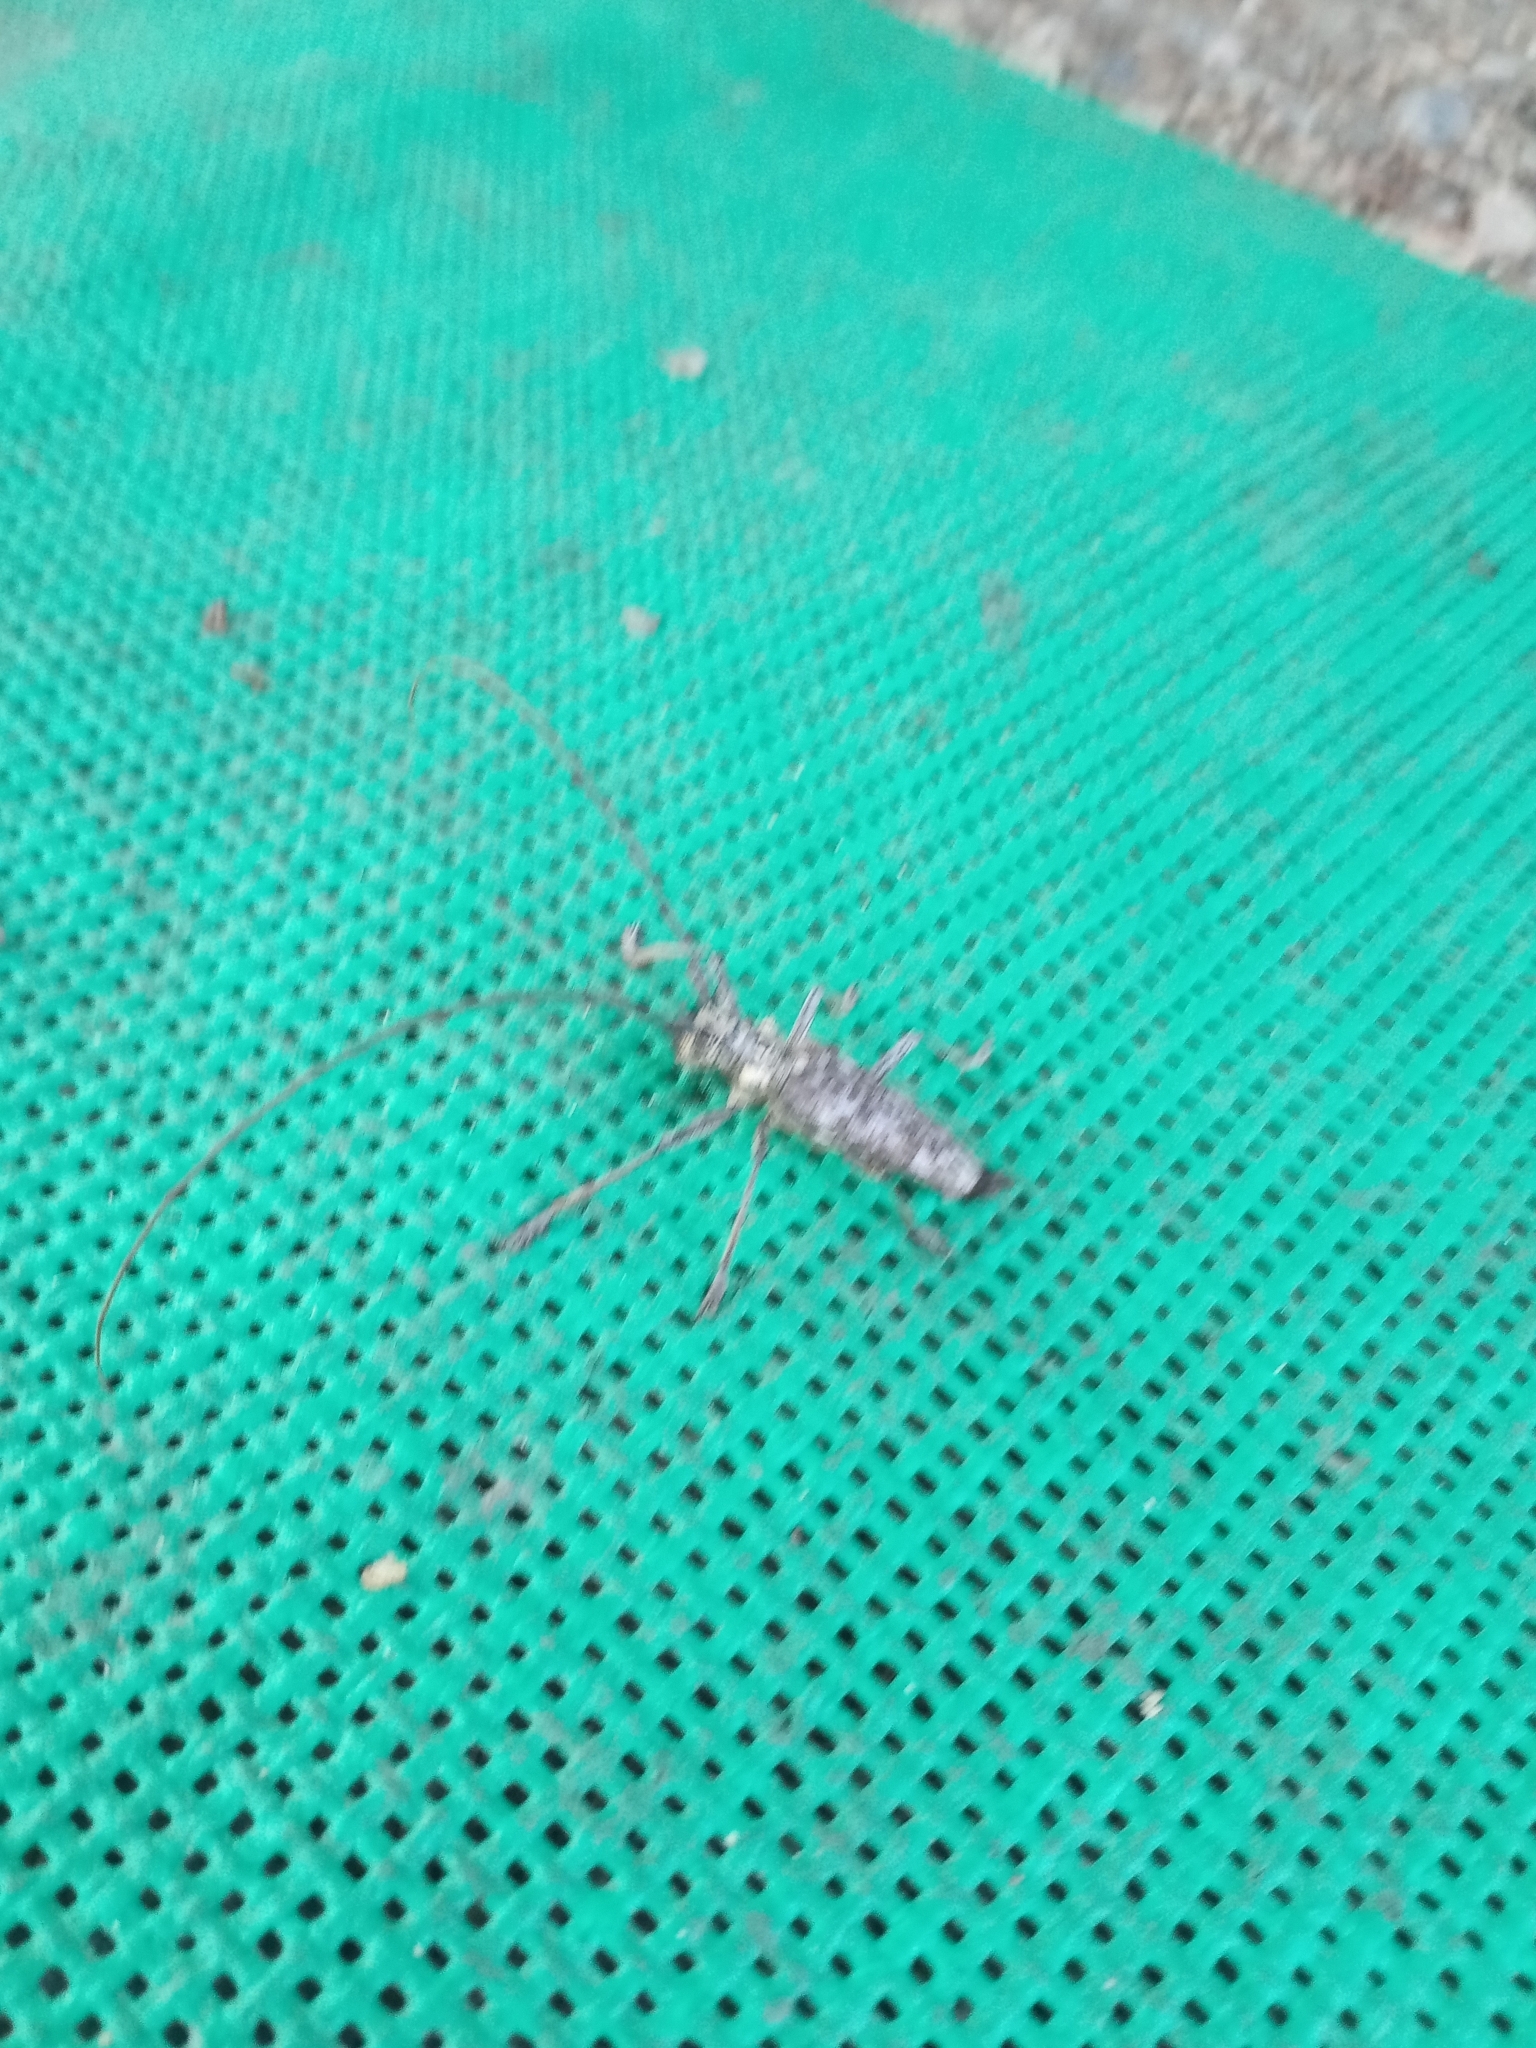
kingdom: Animalia
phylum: Arthropoda
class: Insecta
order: Coleoptera
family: Cerambycidae
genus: Monochamus
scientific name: Monochamus notatus
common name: Northeastern pine sawyer beetle
